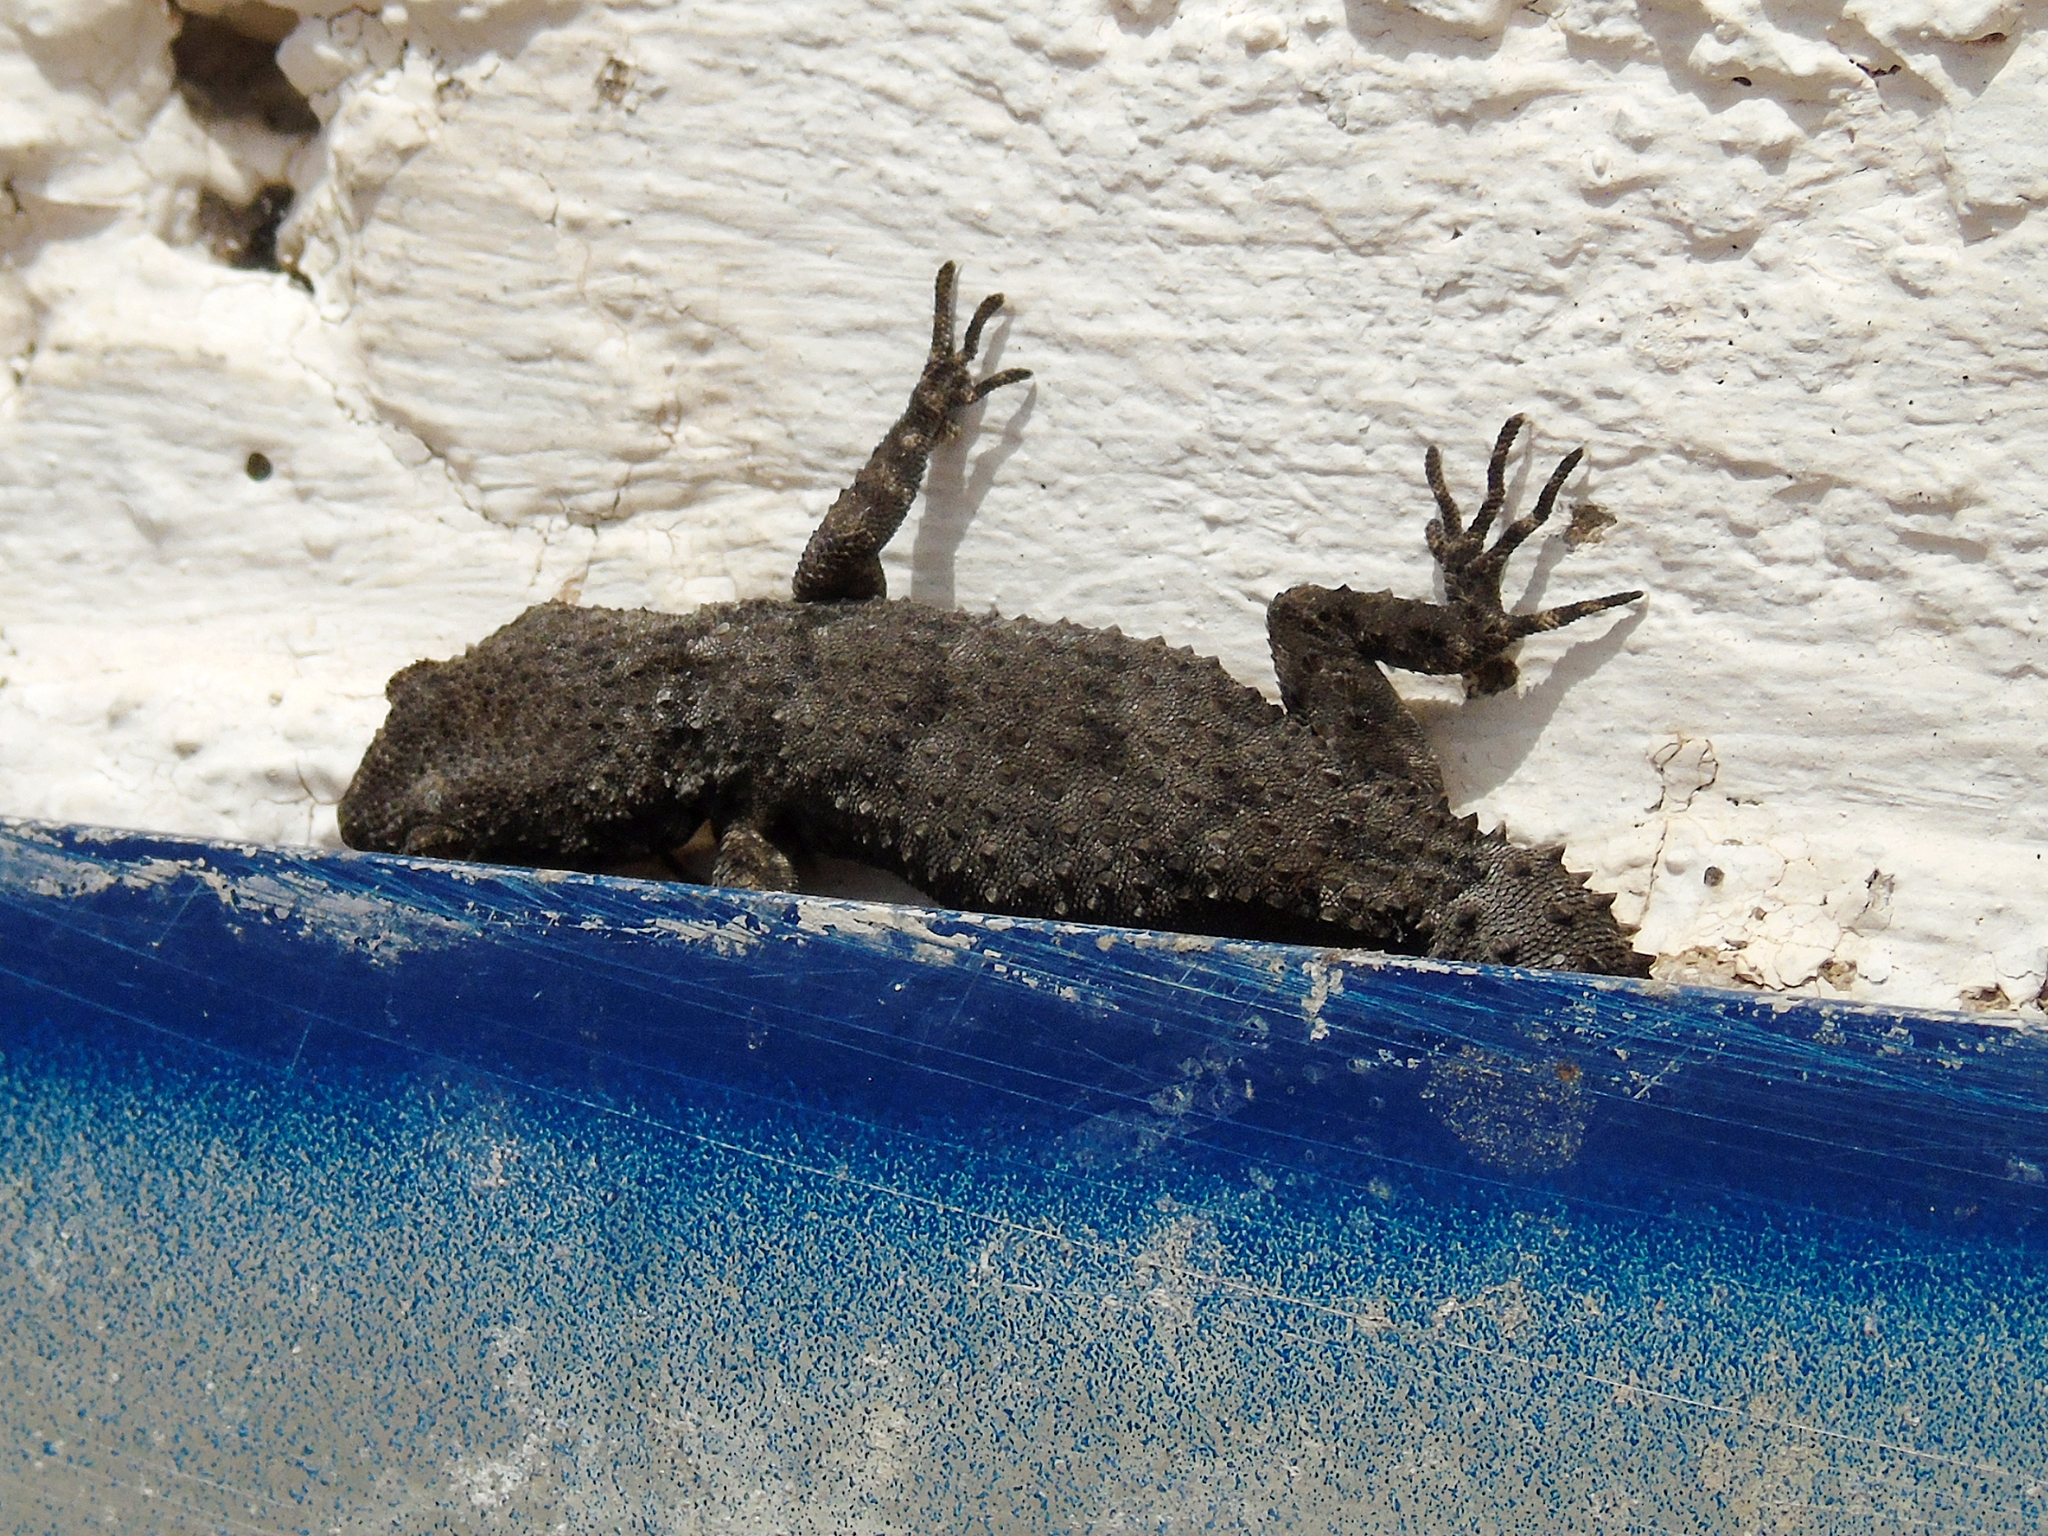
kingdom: Animalia
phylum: Chordata
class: Squamata
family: Gekkonidae
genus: Mediodactylus
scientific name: Mediodactylus kotschyi
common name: Kotschy's gecko
